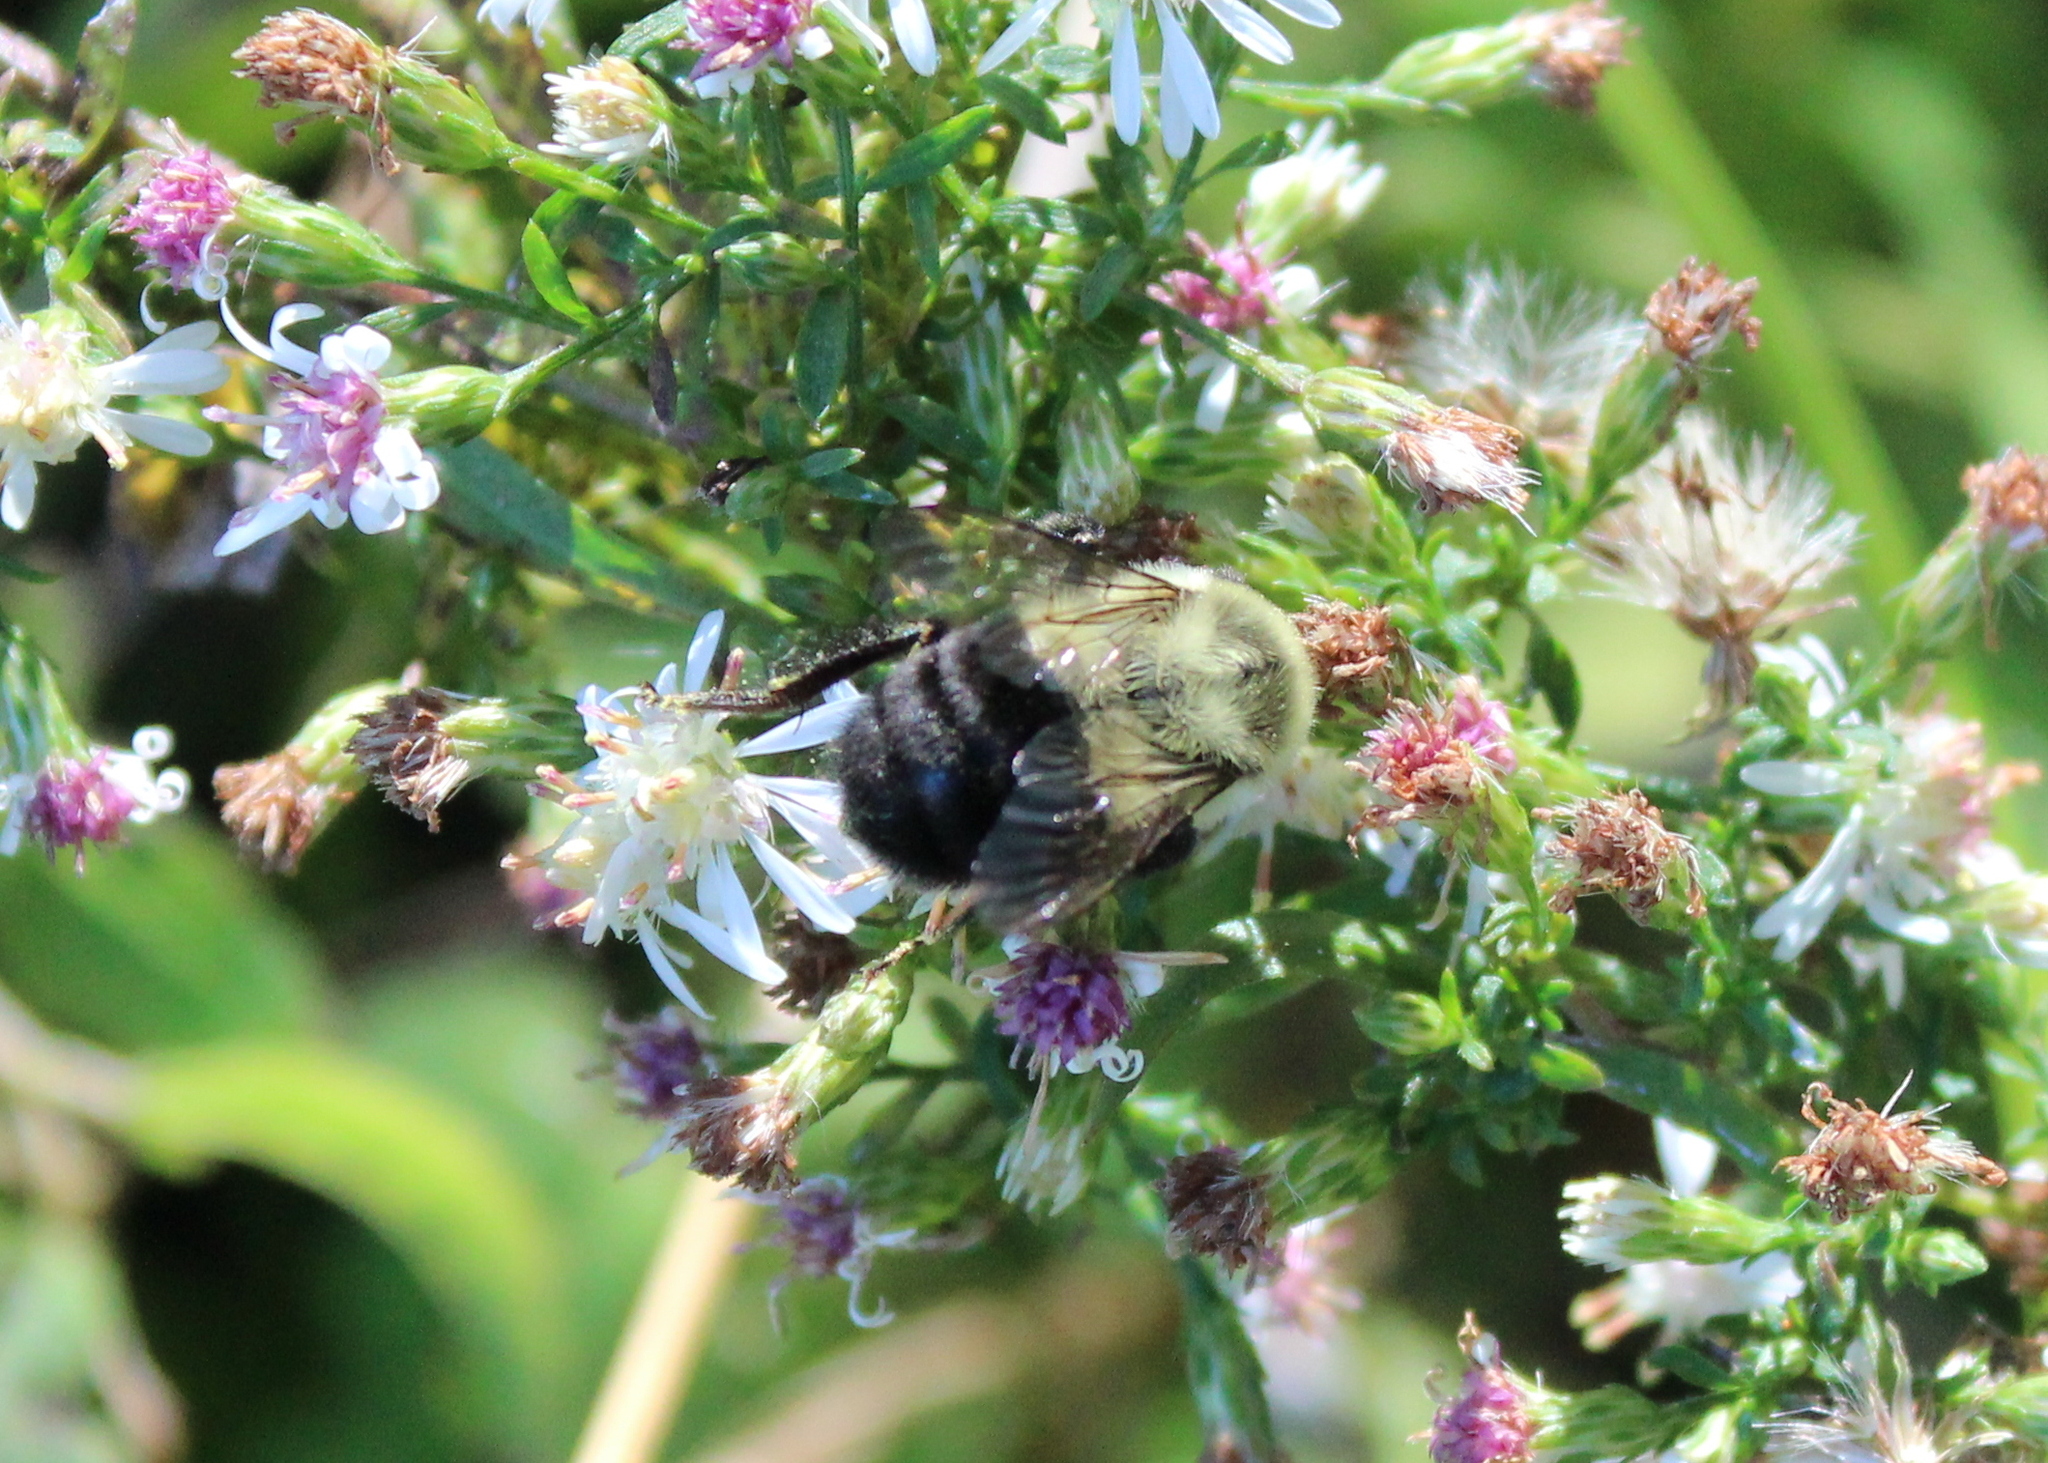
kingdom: Animalia
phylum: Arthropoda
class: Insecta
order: Hymenoptera
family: Apidae
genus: Bombus
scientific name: Bombus impatiens
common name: Common eastern bumble bee
